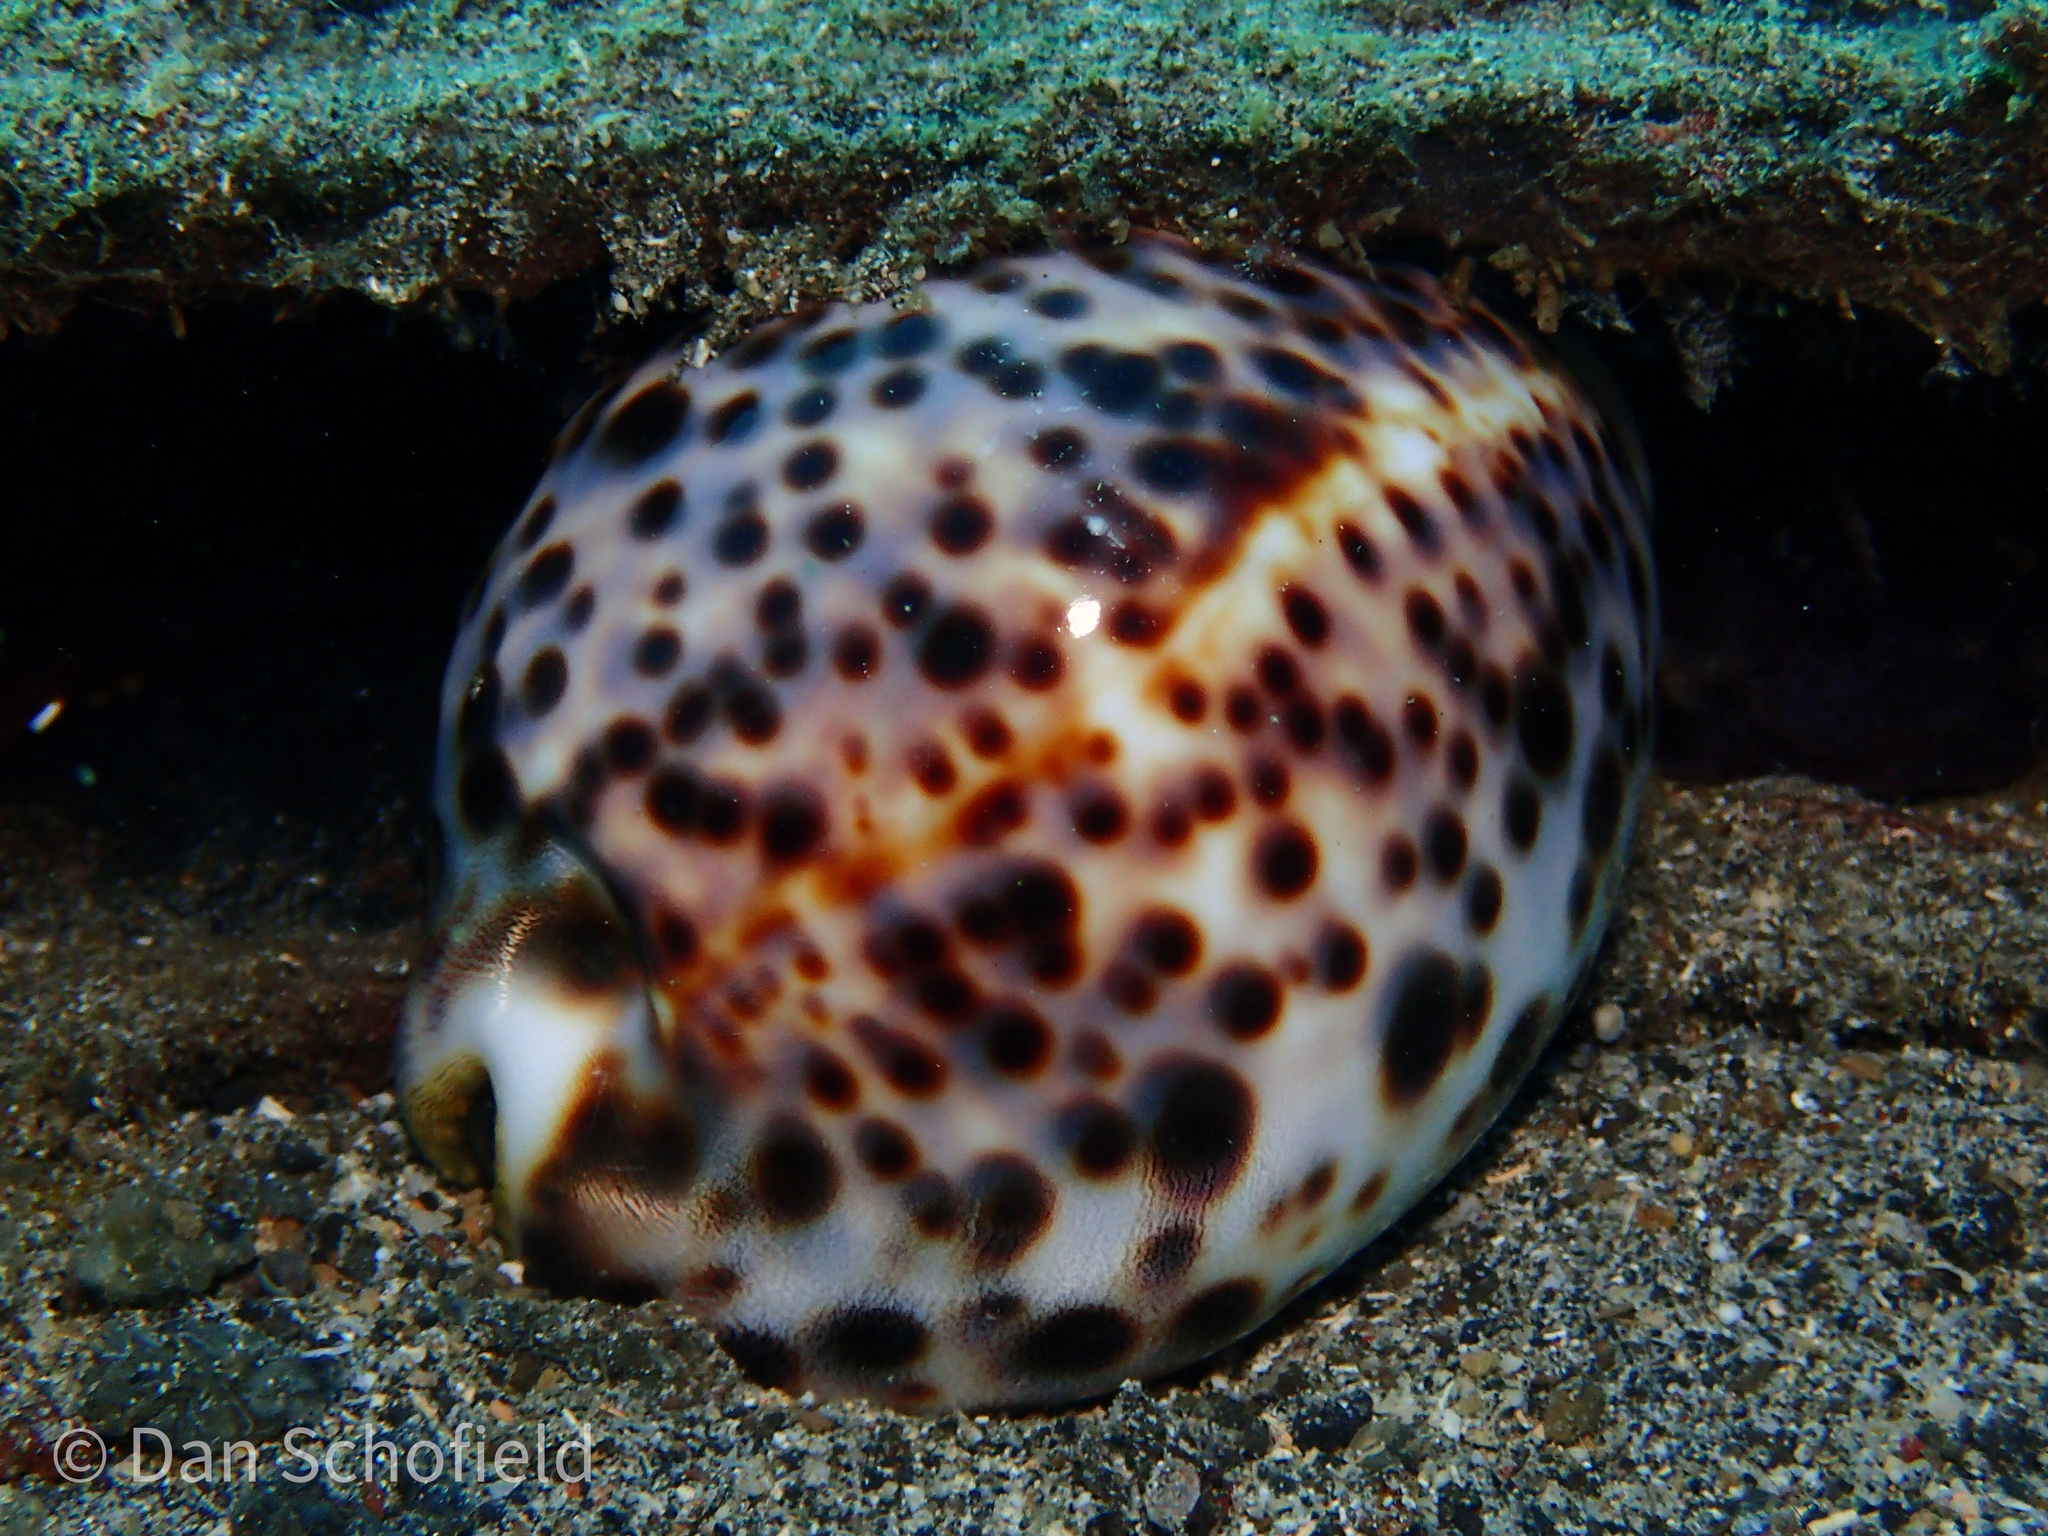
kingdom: Animalia
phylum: Mollusca
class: Gastropoda
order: Littorinimorpha
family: Cypraeidae
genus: Cypraea
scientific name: Cypraea tigris
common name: Tiger cowrie
